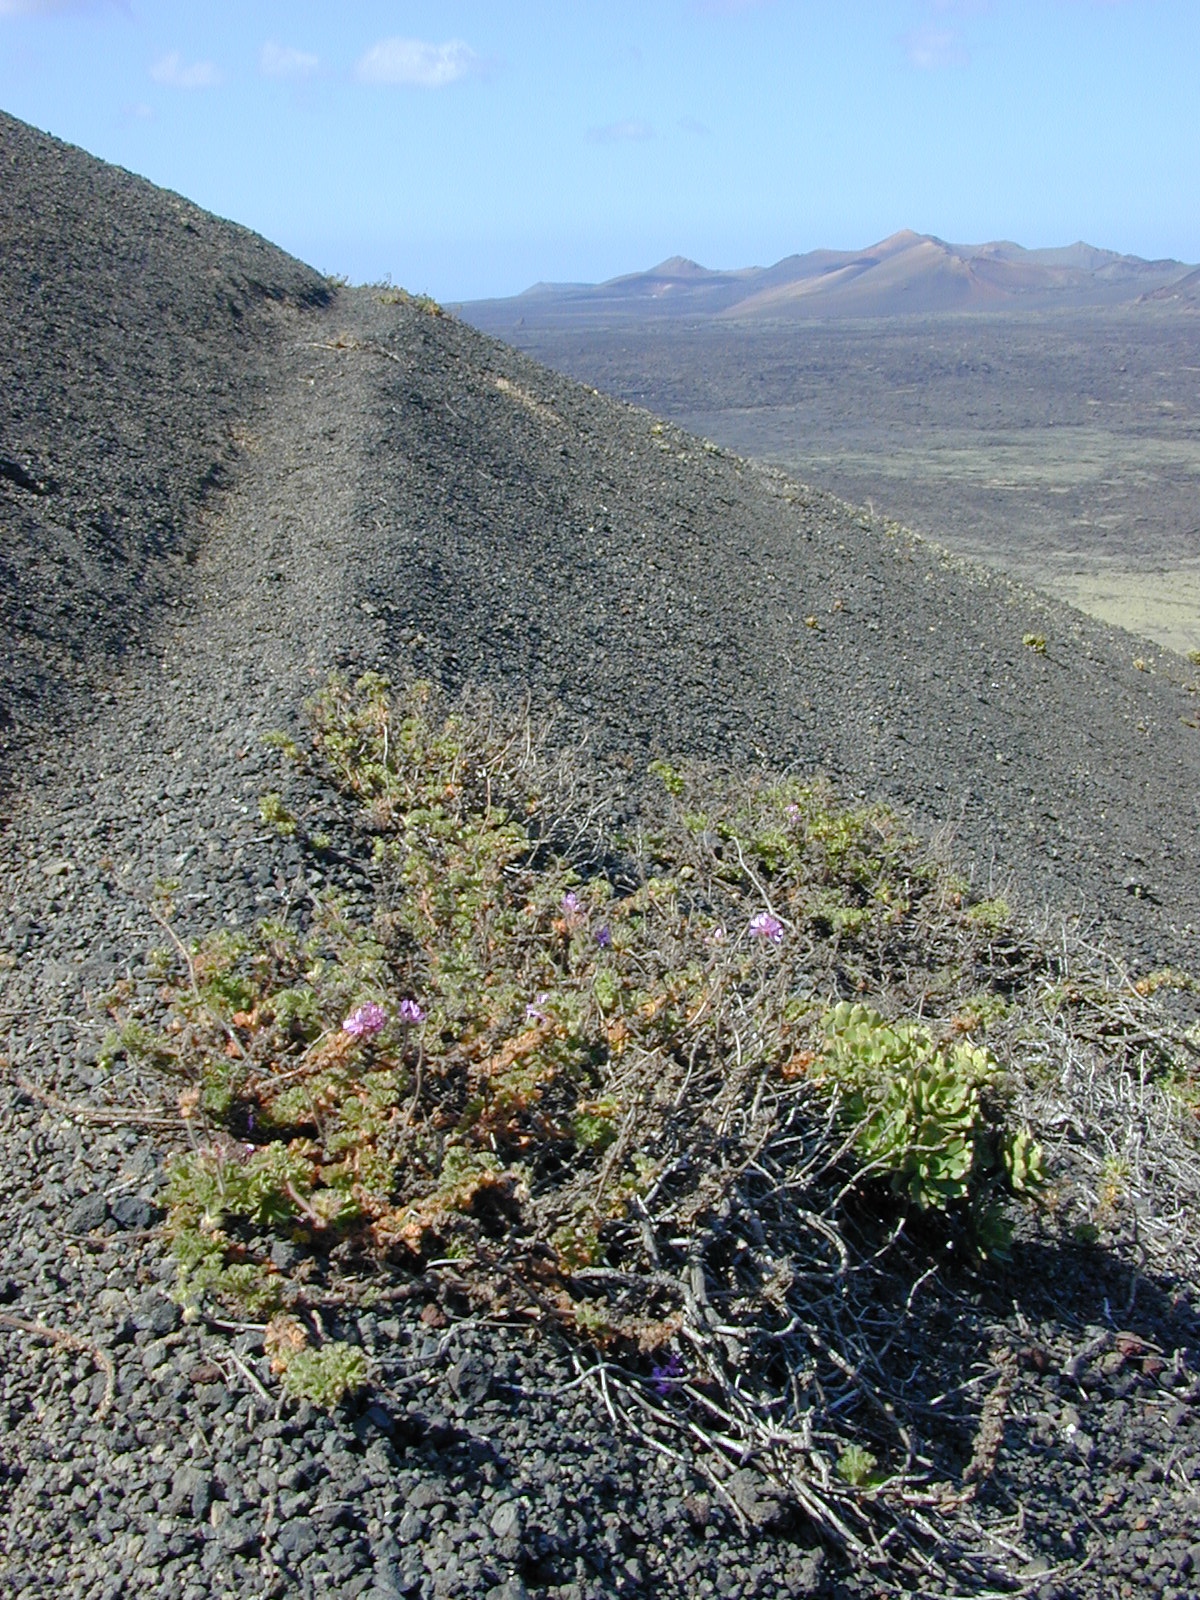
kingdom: Plantae
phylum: Tracheophyta
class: Magnoliopsida
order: Geraniales
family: Geraniaceae
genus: Pelargonium
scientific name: Pelargonium capitatum
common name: Rose scented geranium
